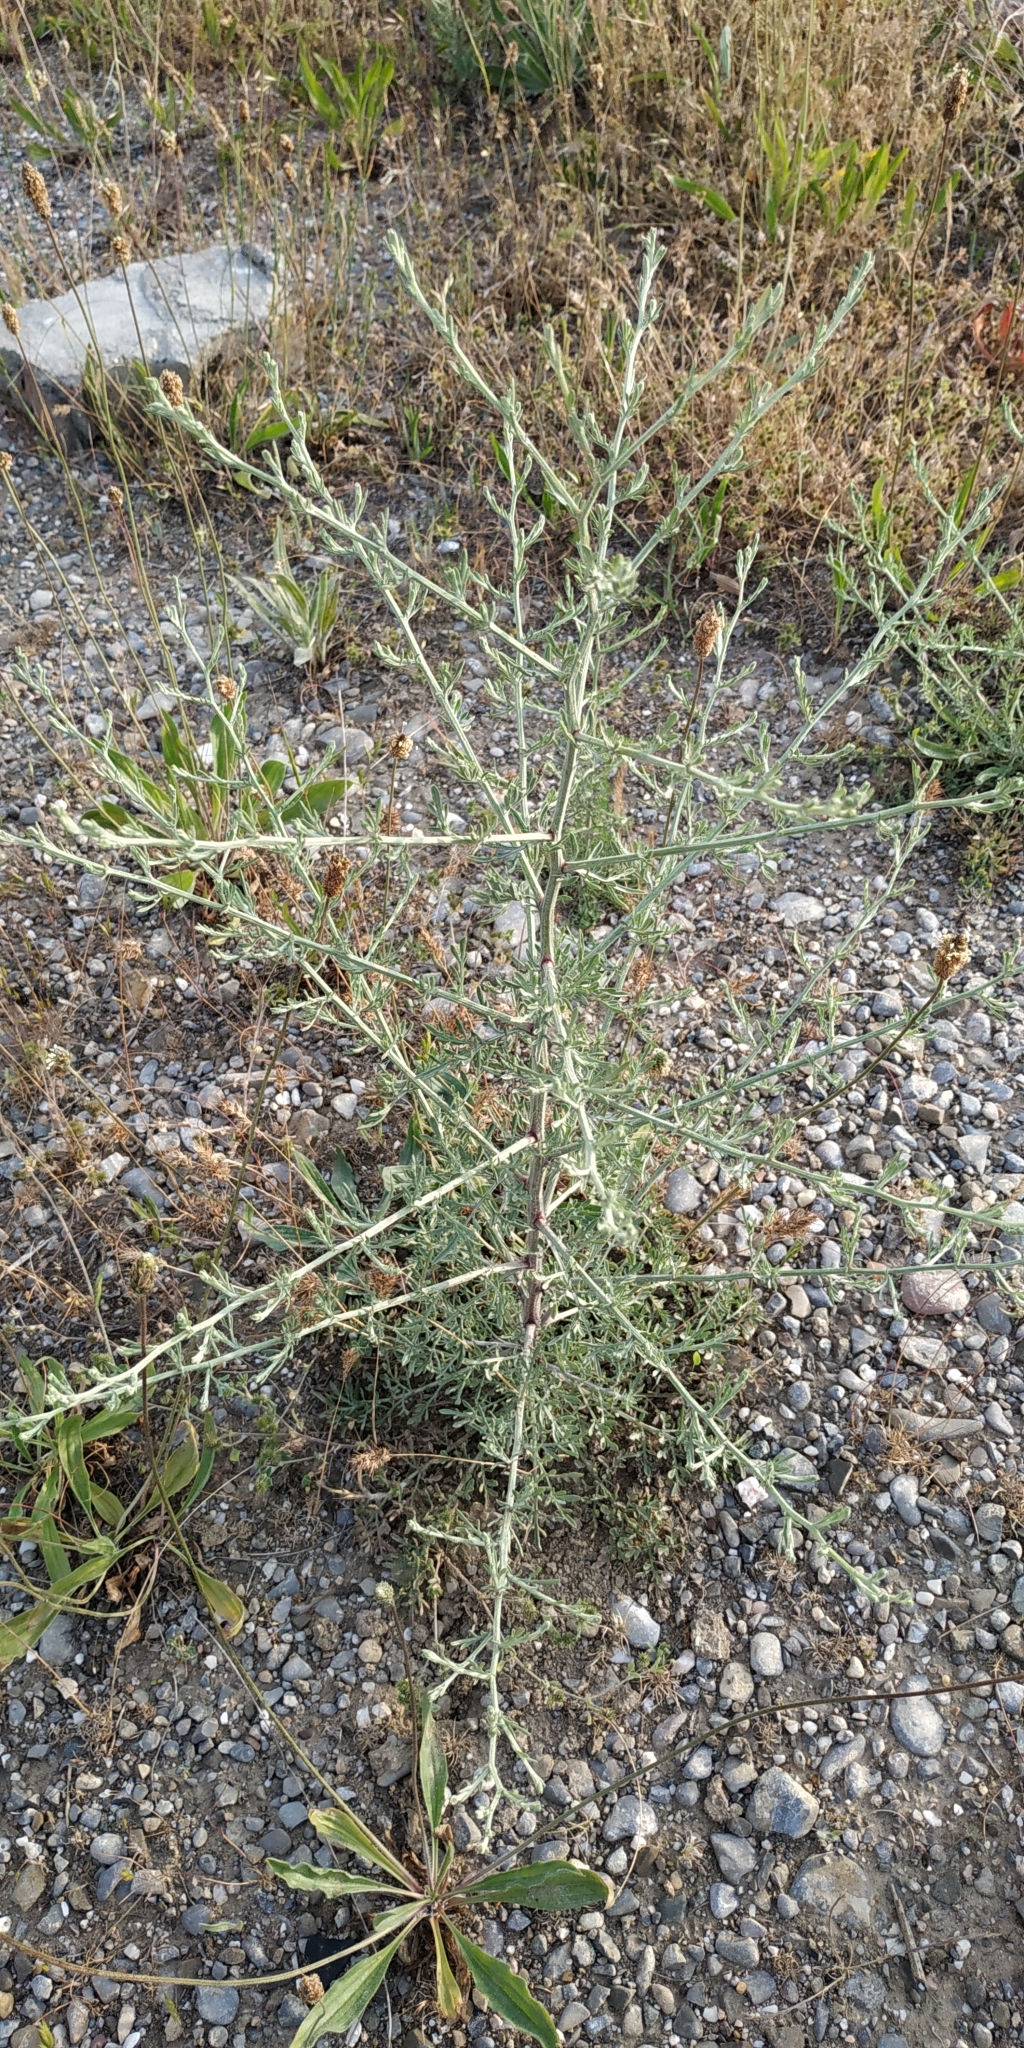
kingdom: Plantae
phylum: Tracheophyta
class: Magnoliopsida
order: Asterales
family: Asteraceae
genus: Centaurea
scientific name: Centaurea diffusa
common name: Diffuse knapweed
